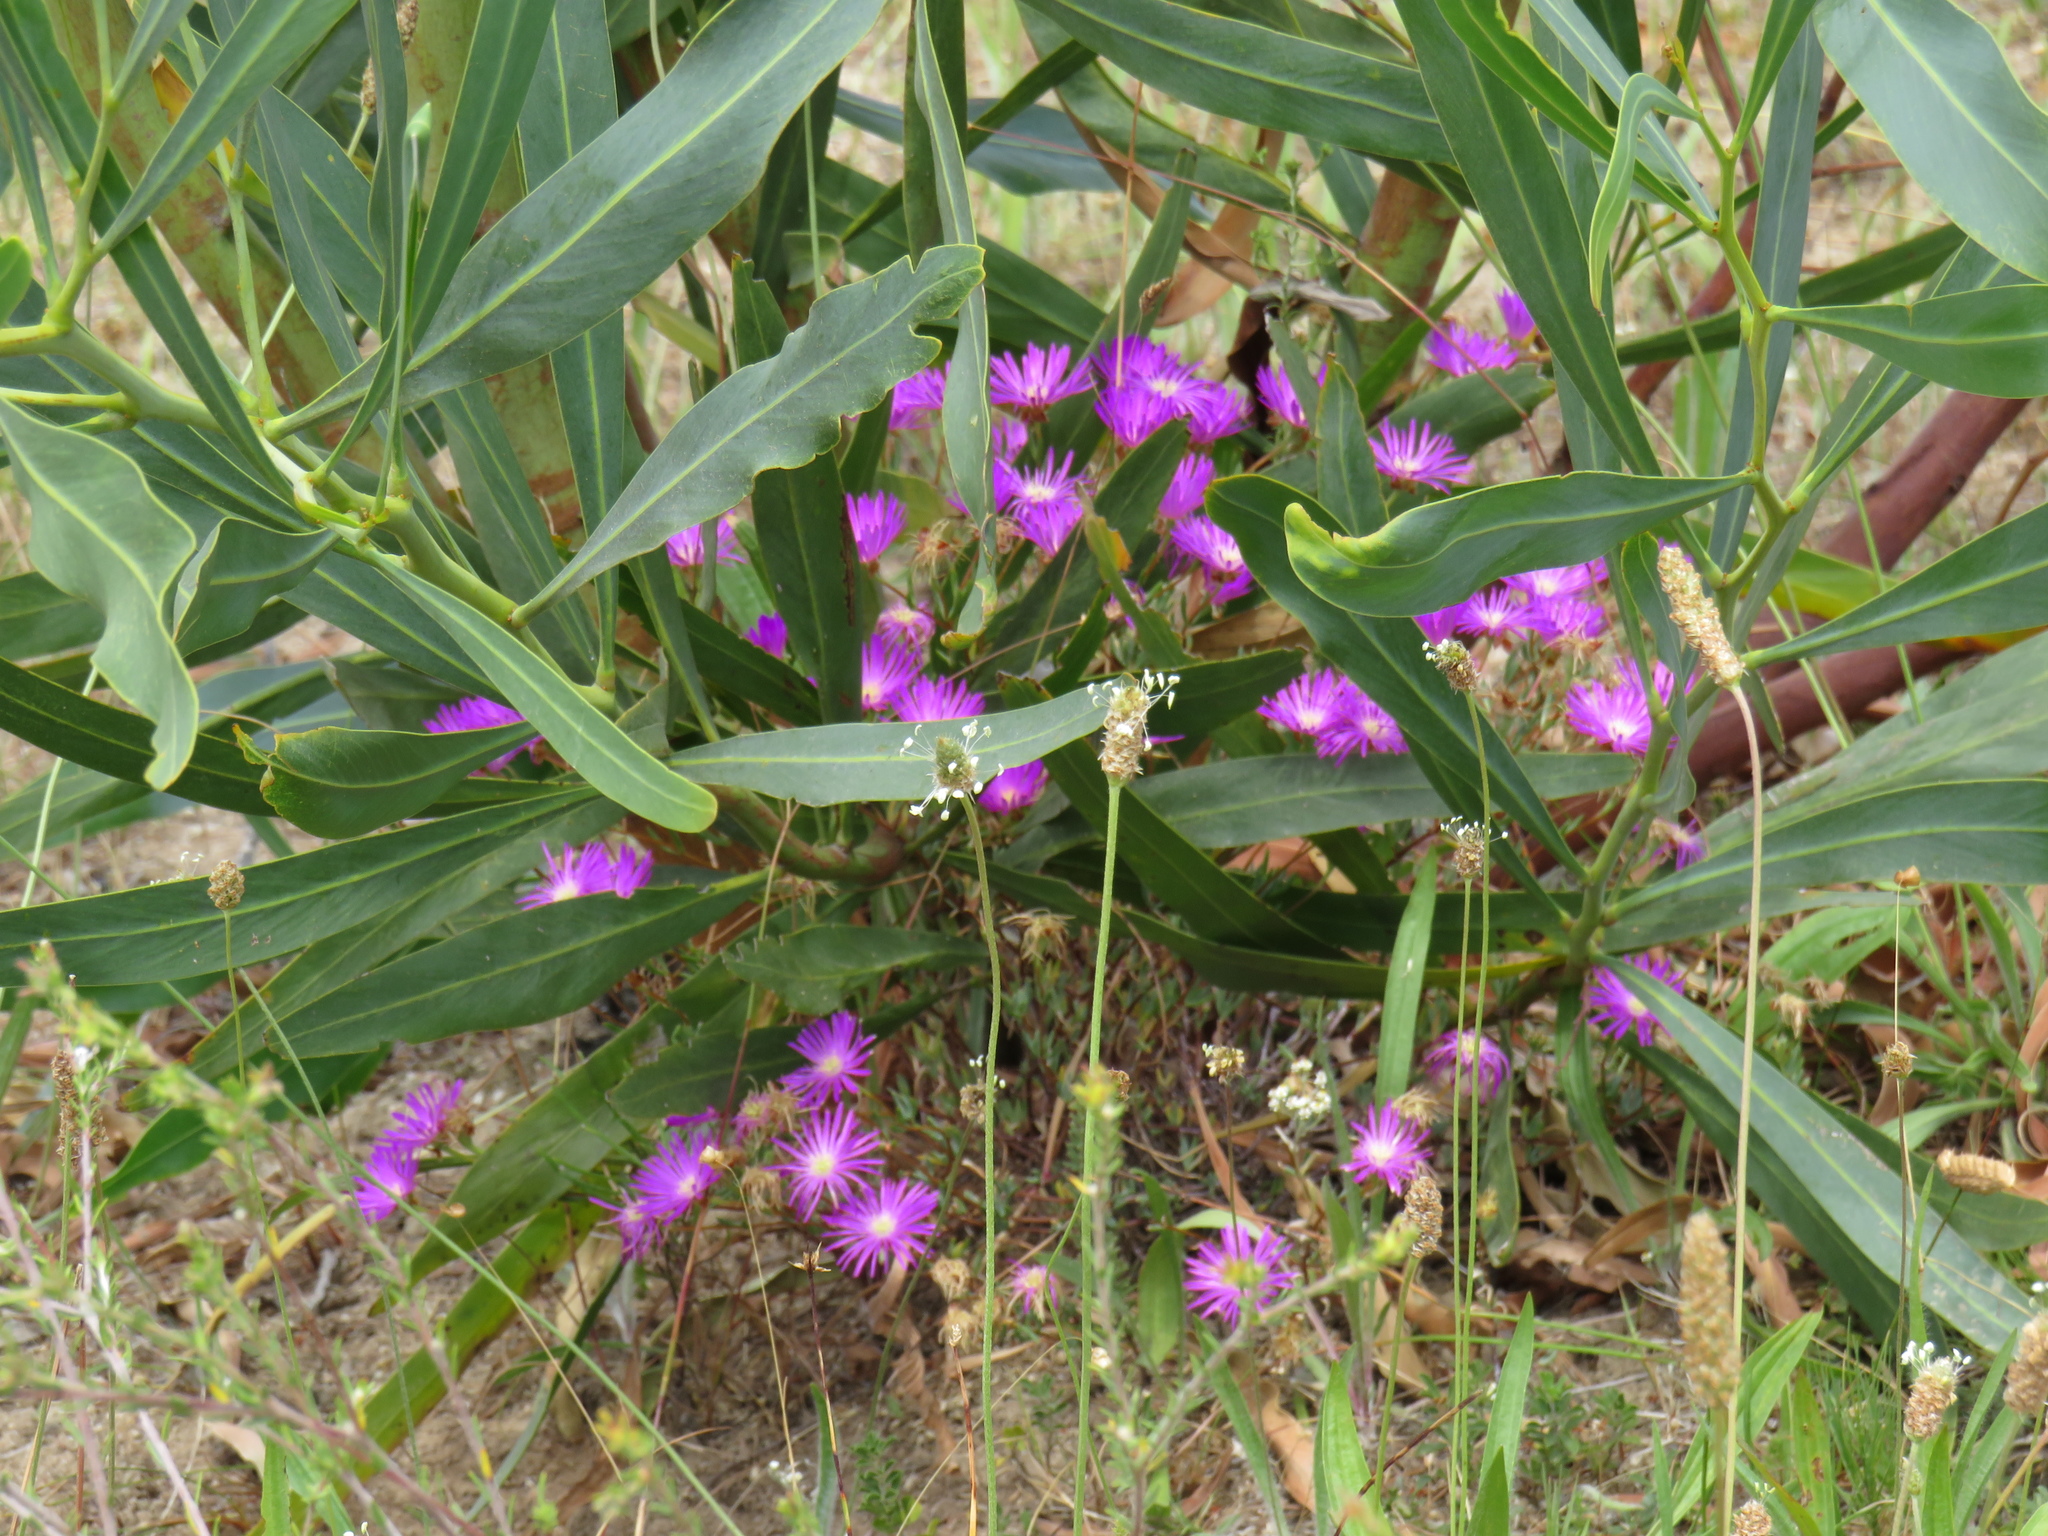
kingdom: Plantae
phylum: Tracheophyta
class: Magnoliopsida
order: Fabales
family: Fabaceae
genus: Acacia
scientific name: Acacia saligna
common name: Orange wattle
